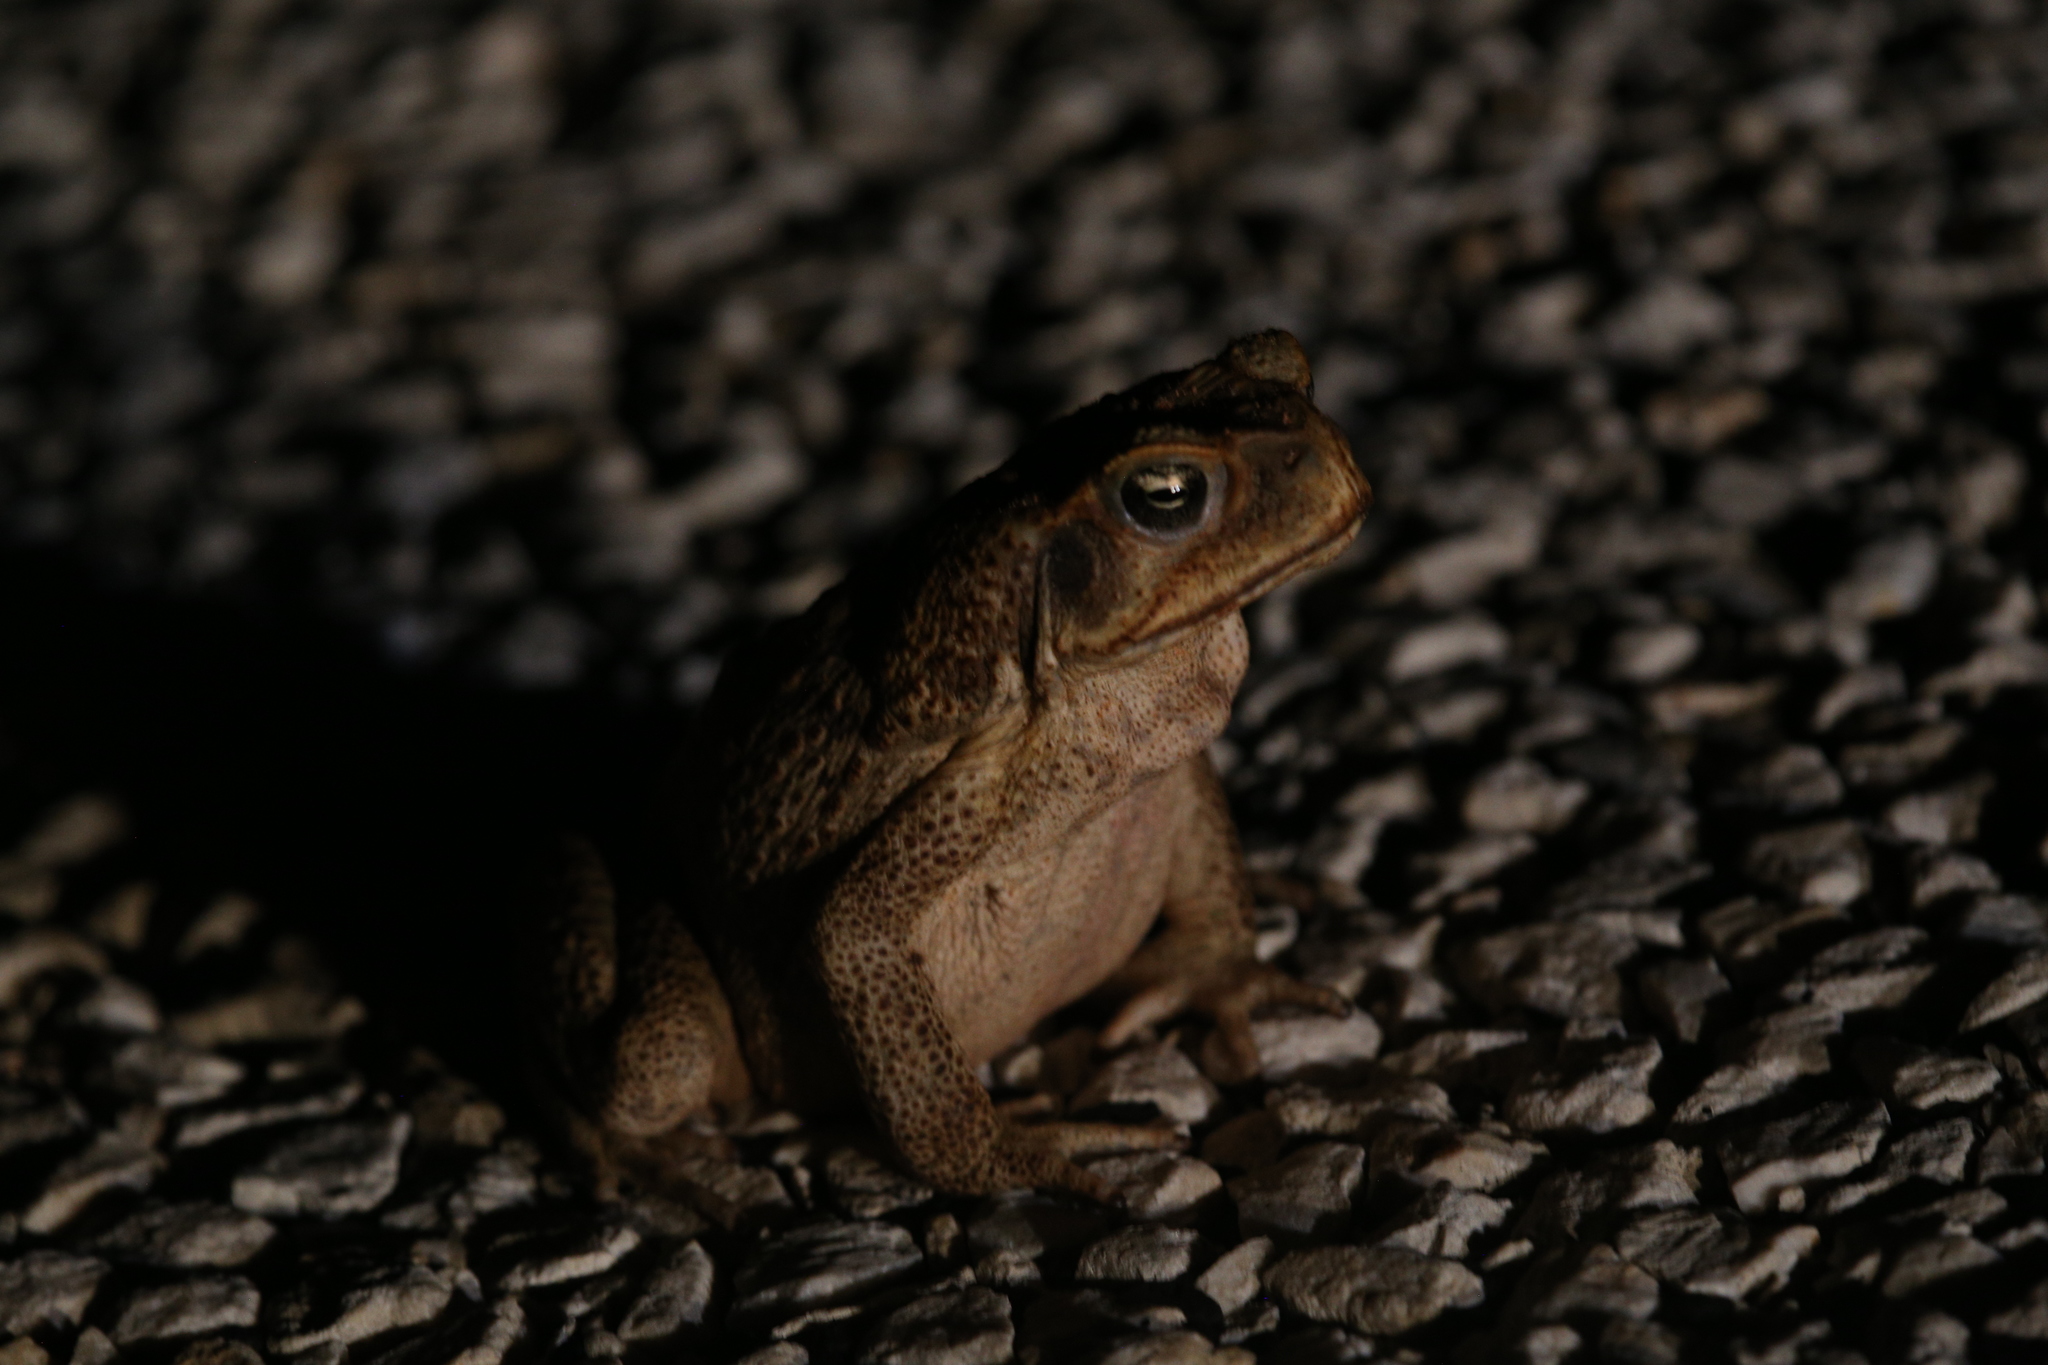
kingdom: Animalia
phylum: Chordata
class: Amphibia
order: Anura
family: Bufonidae
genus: Rhinella
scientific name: Rhinella marina
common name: Cane toad
